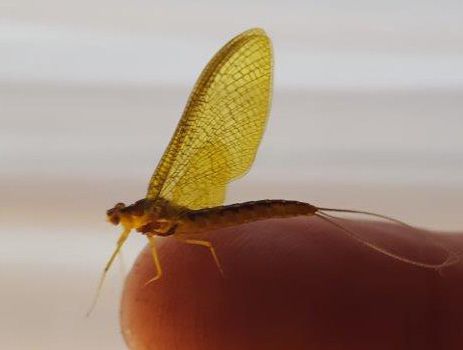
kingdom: Animalia
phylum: Arthropoda
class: Insecta
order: Ephemeroptera
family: Ameletopsidae
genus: Ameletopsis
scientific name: Ameletopsis perscitus
